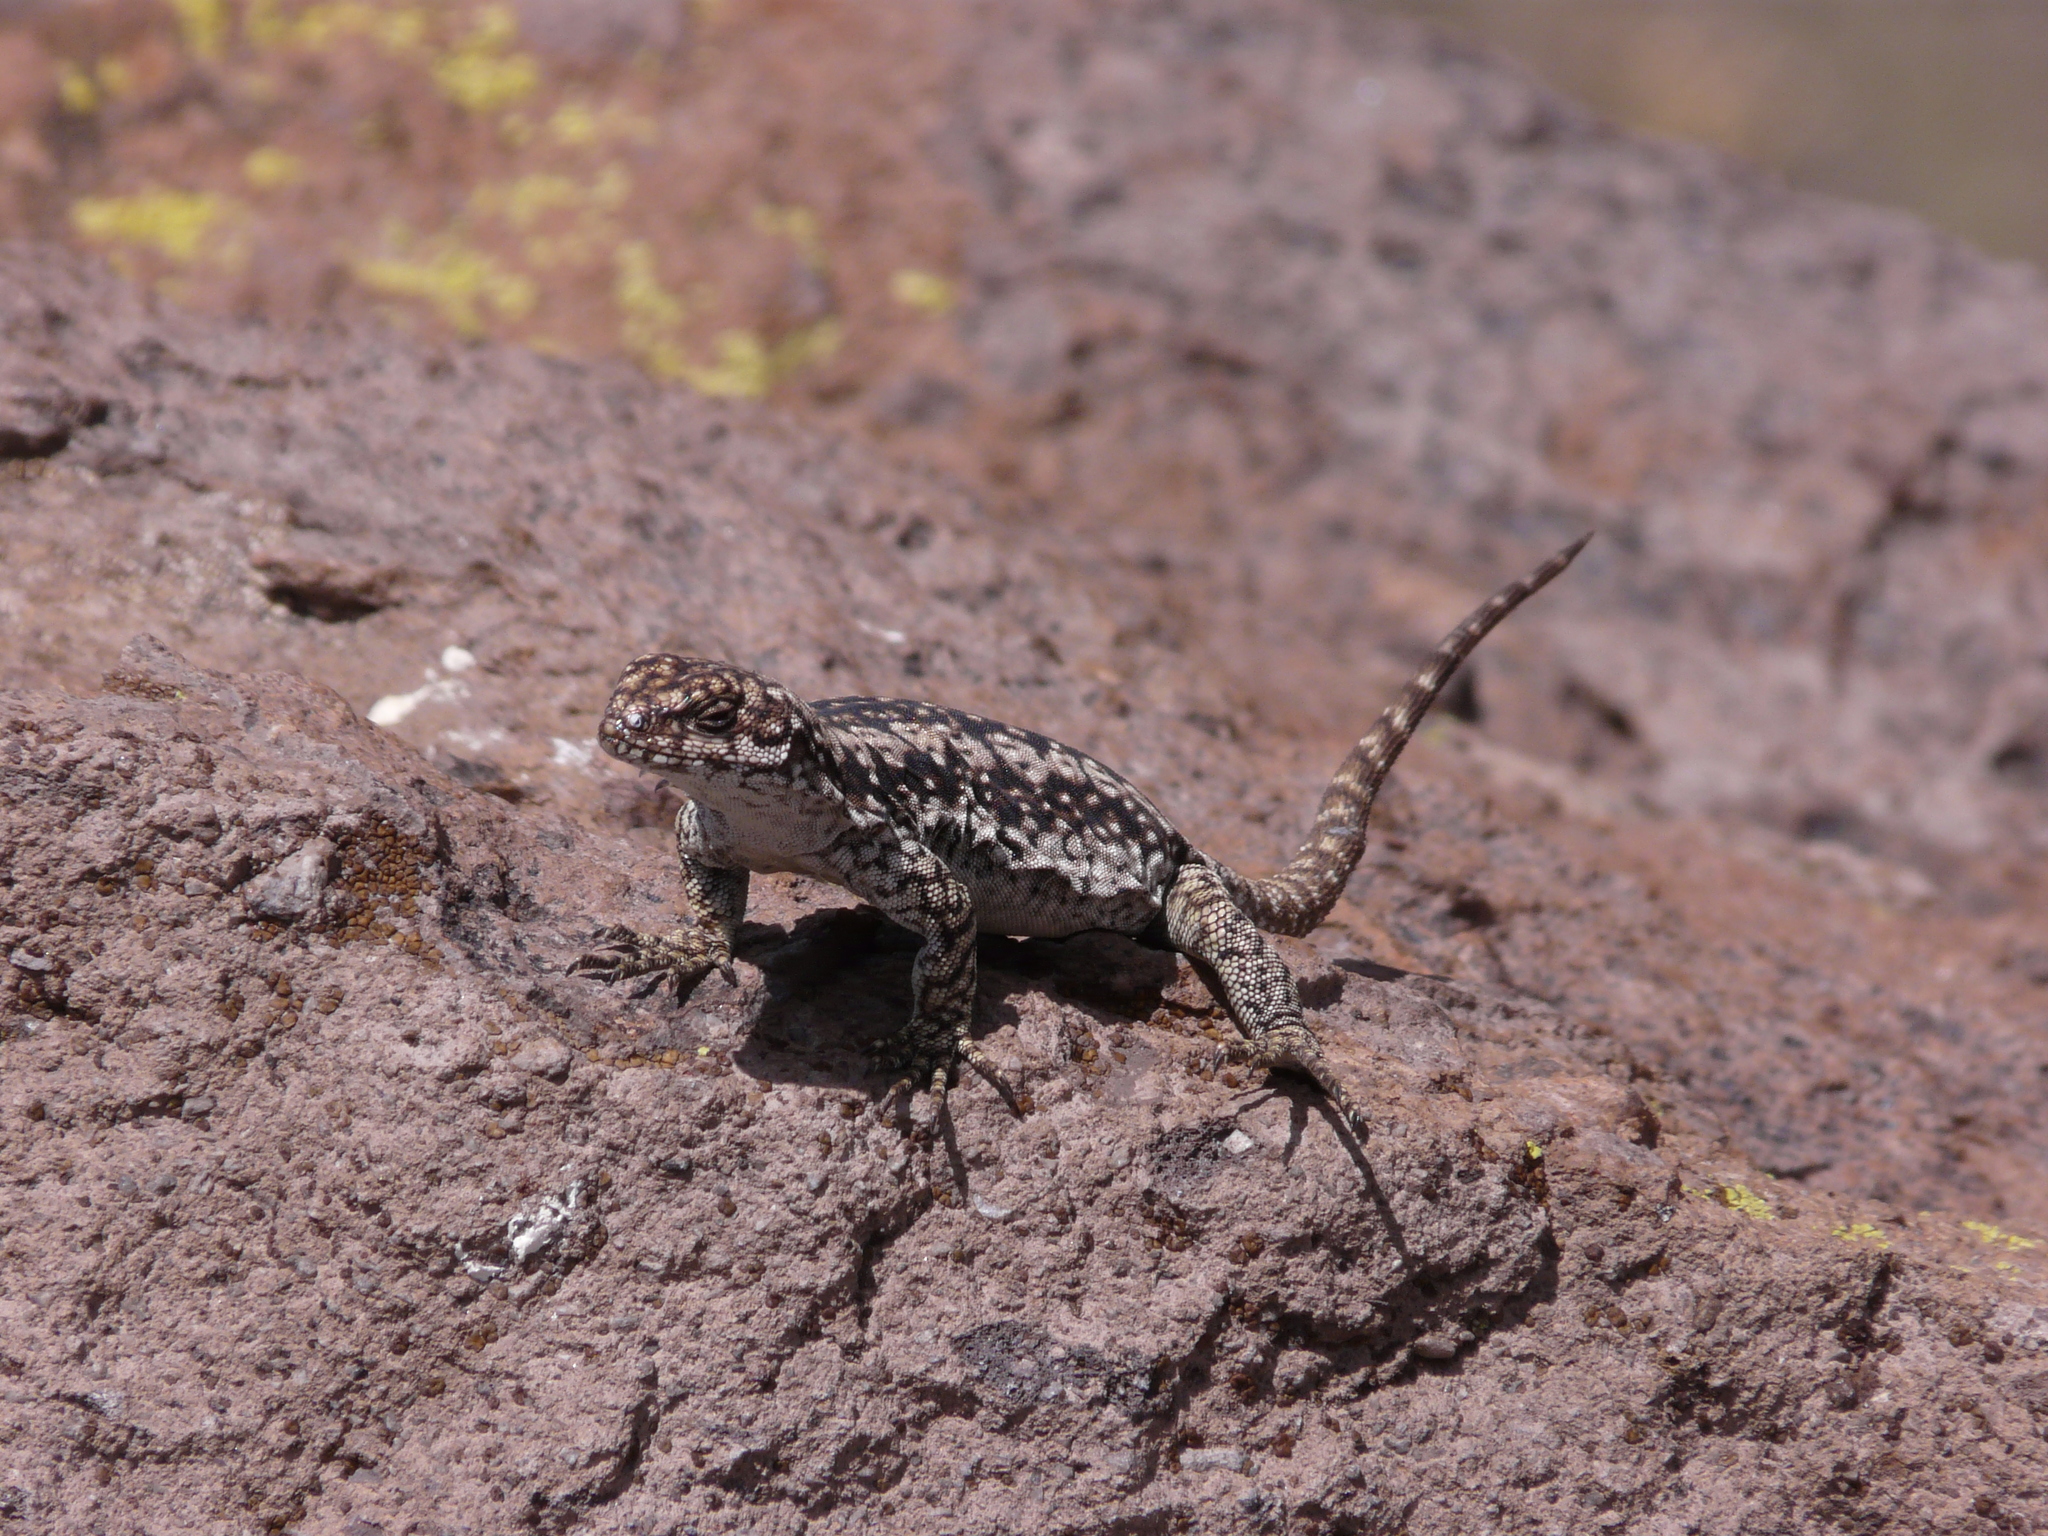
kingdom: Animalia
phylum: Chordata
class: Squamata
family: Liolaemidae
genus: Phymaturus
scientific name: Phymaturus payuniae
